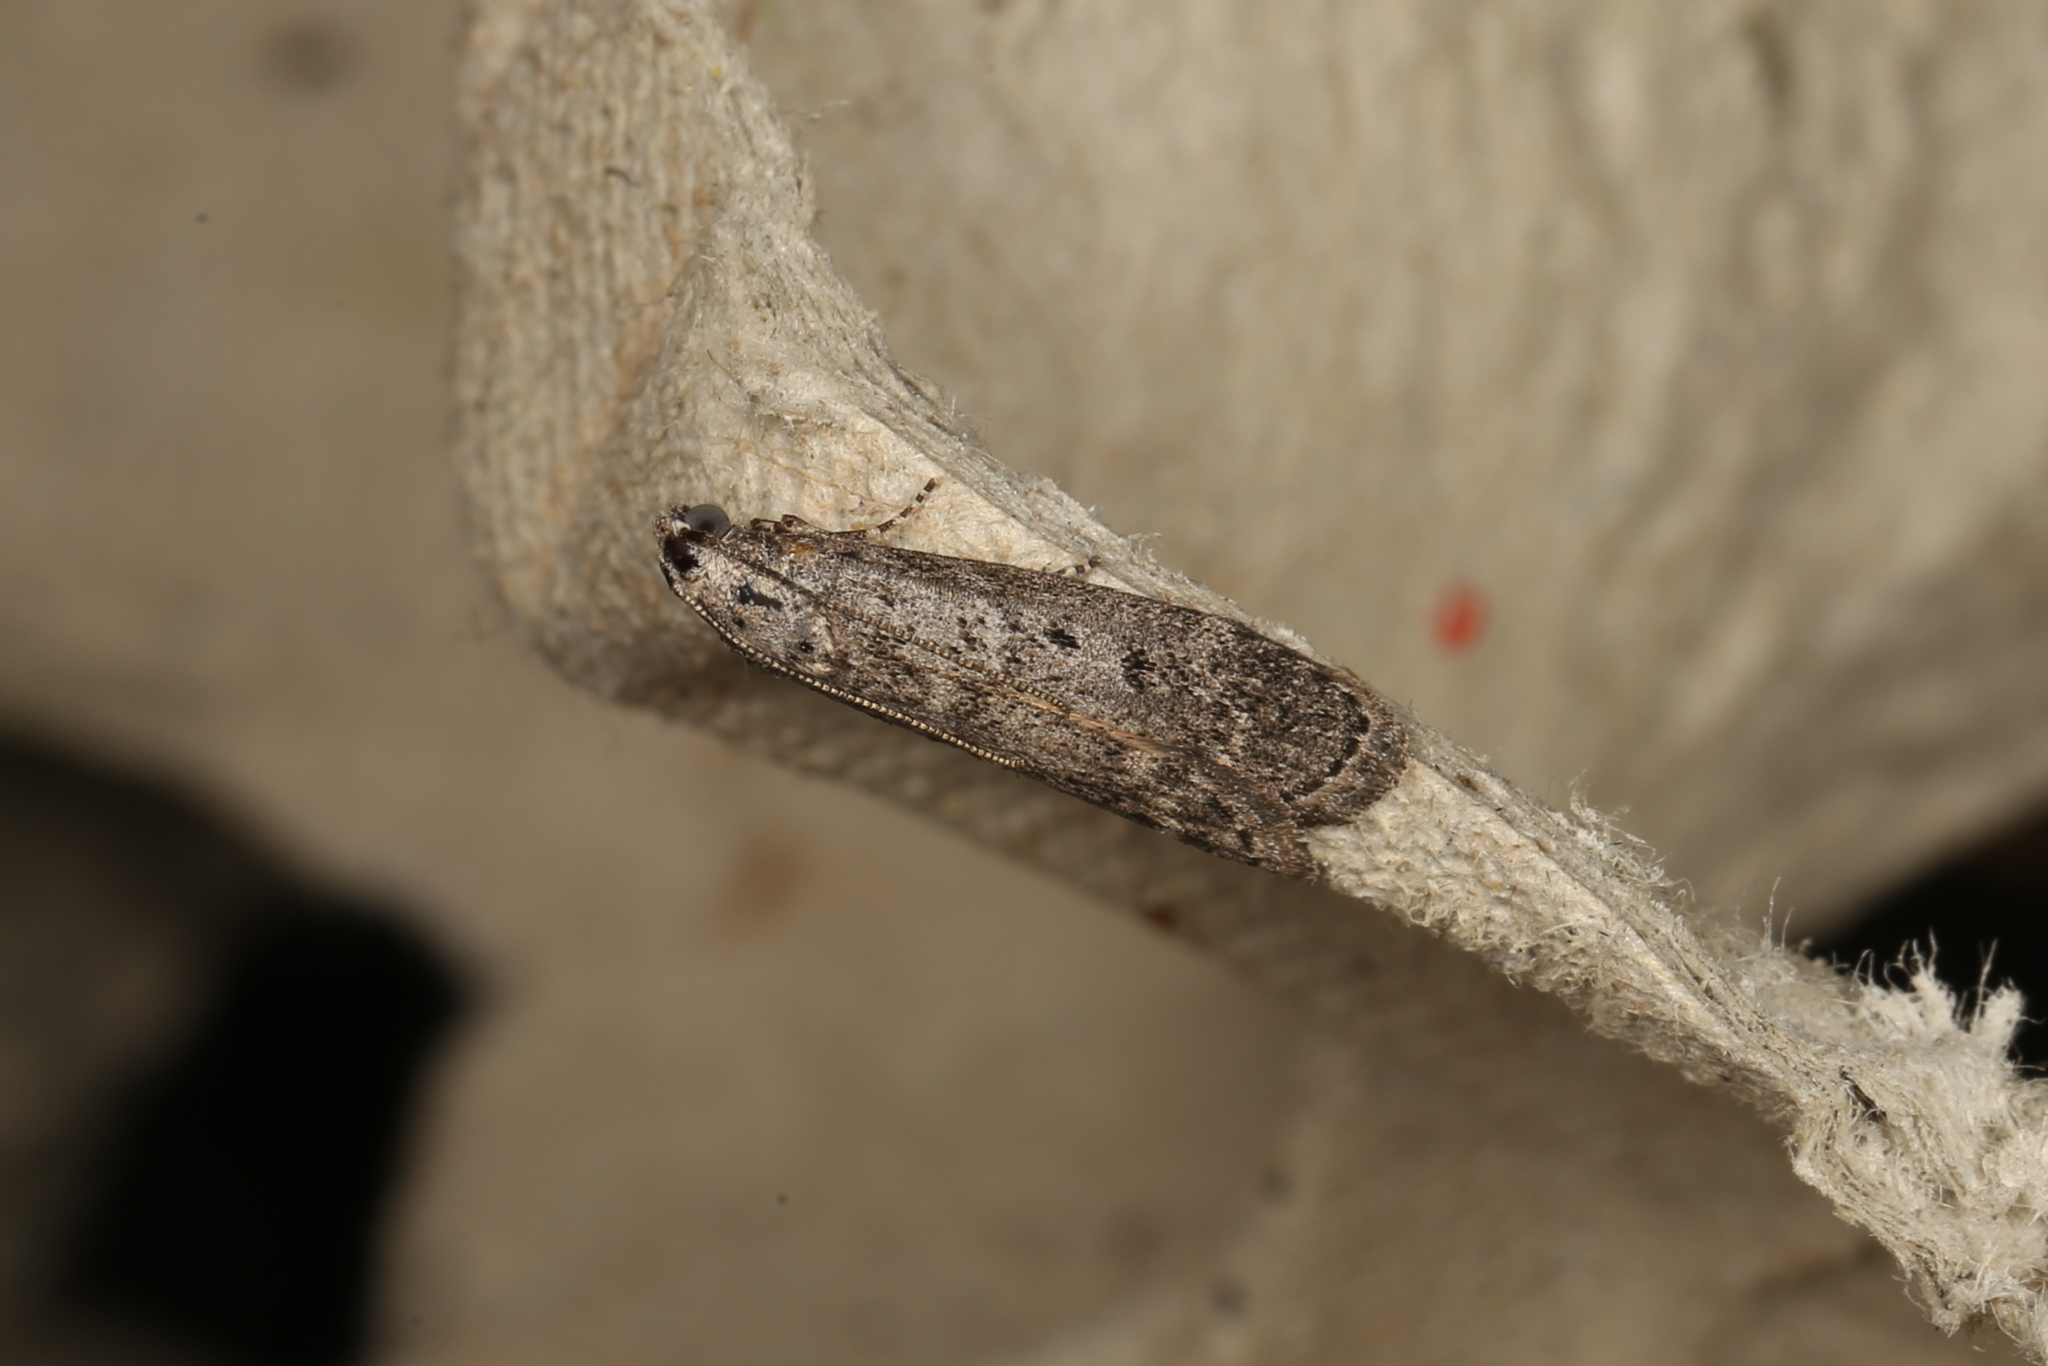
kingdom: Animalia
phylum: Arthropoda
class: Insecta
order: Lepidoptera
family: Pyralidae
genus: Heteromicta
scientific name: Heteromicta pachytera
